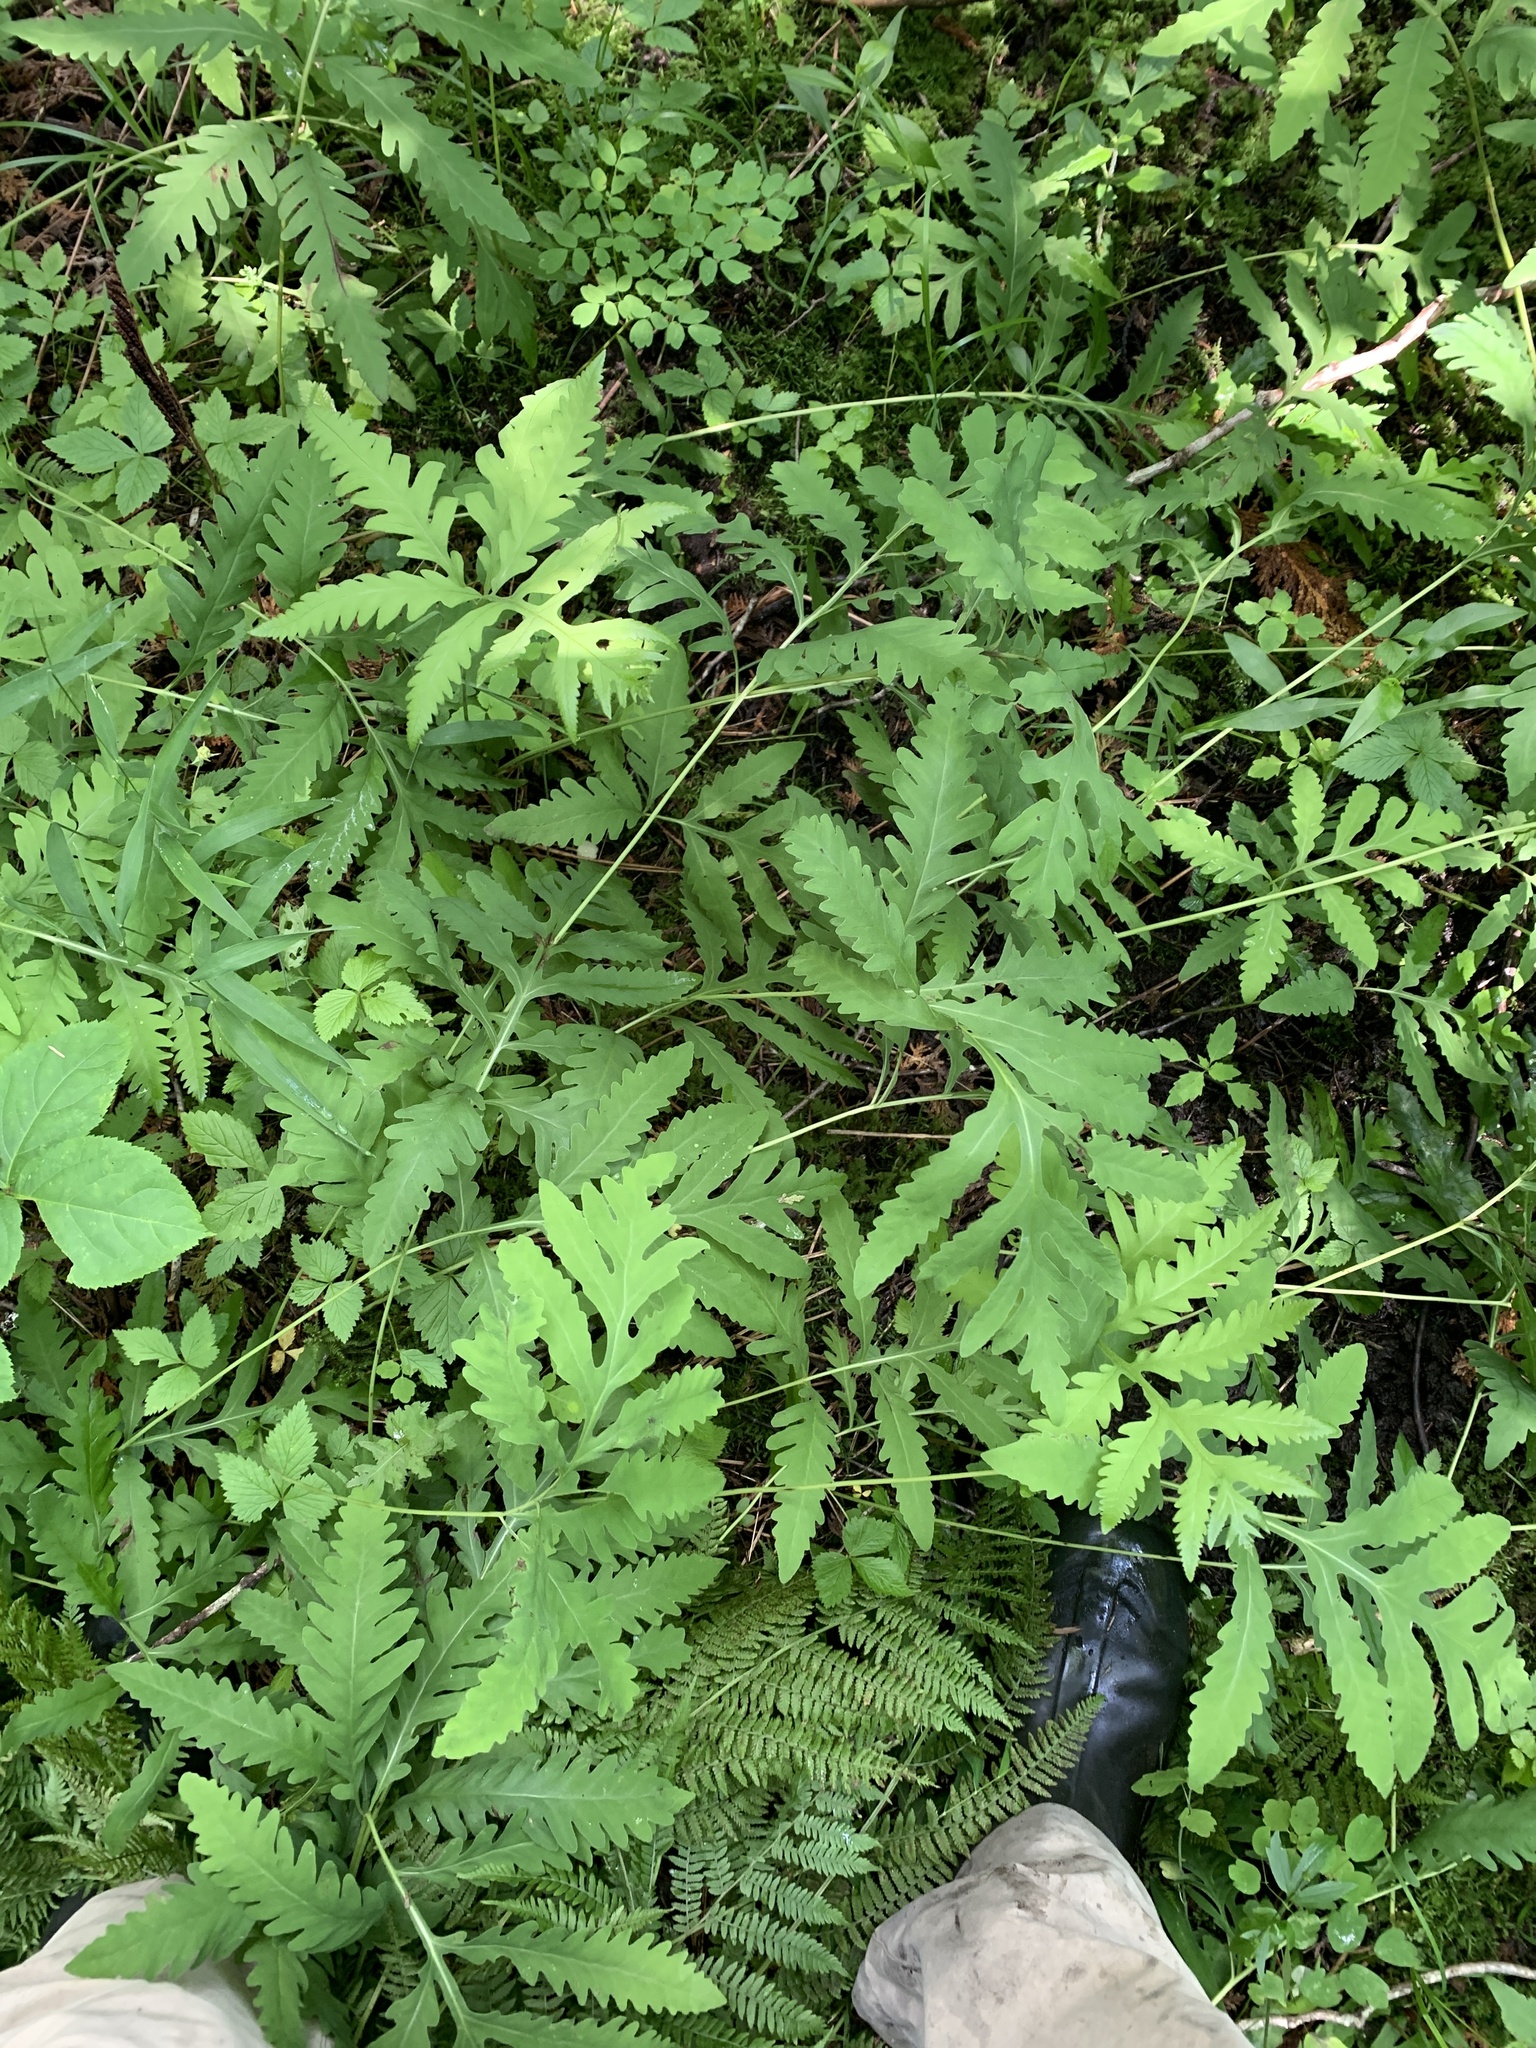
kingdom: Plantae
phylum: Tracheophyta
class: Polypodiopsida
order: Polypodiales
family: Onocleaceae
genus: Onoclea
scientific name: Onoclea sensibilis
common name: Sensitive fern
